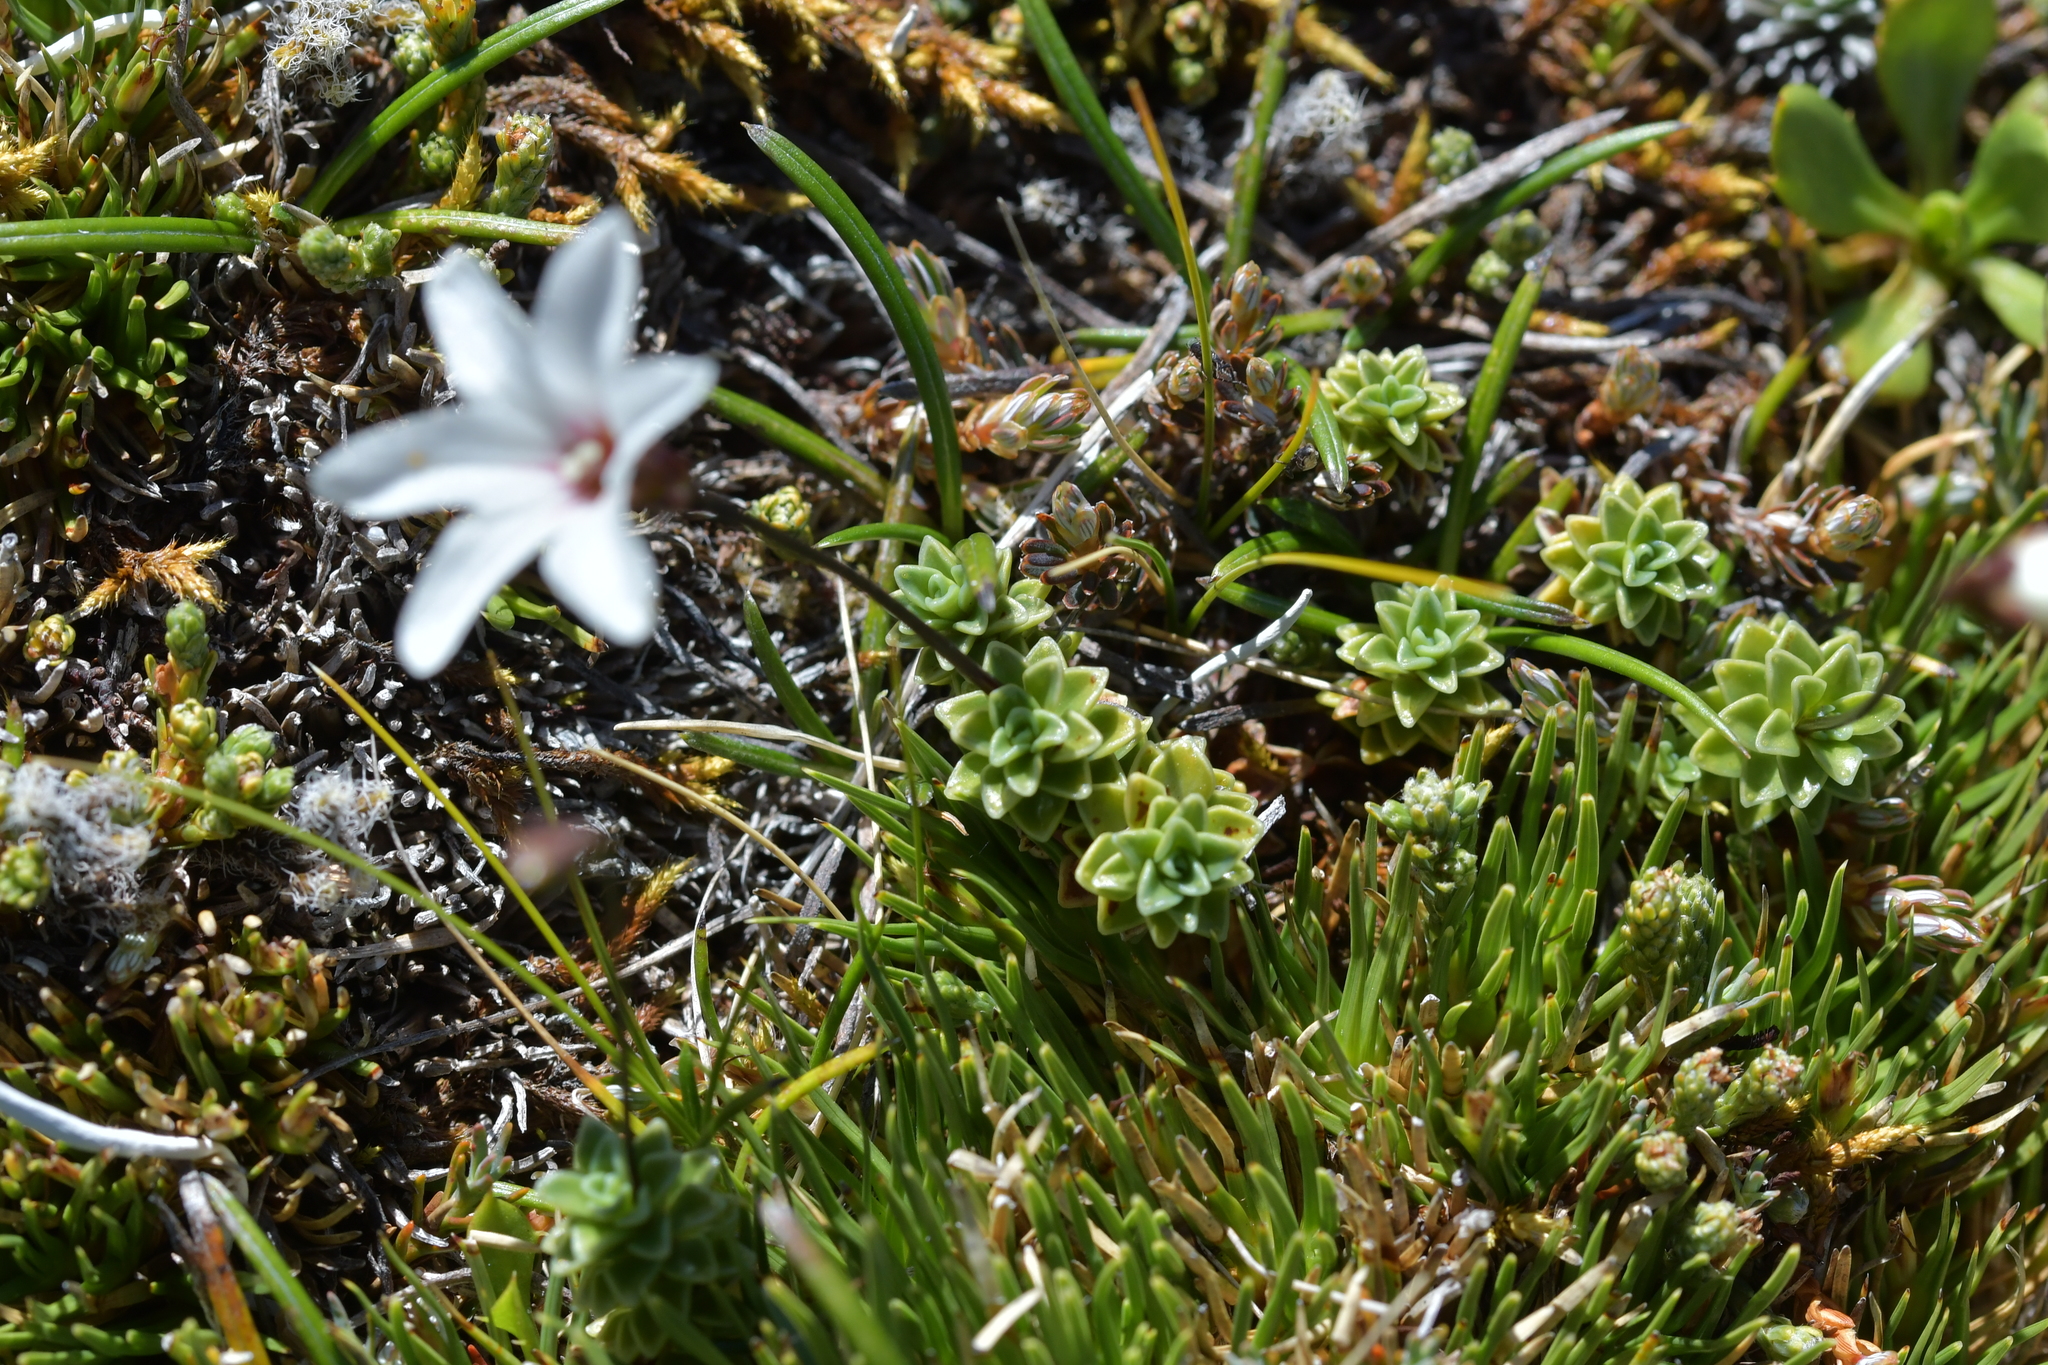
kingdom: Plantae
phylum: Tracheophyta
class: Magnoliopsida
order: Asterales
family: Stylidiaceae
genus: Forstera
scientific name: Forstera sedifolia
